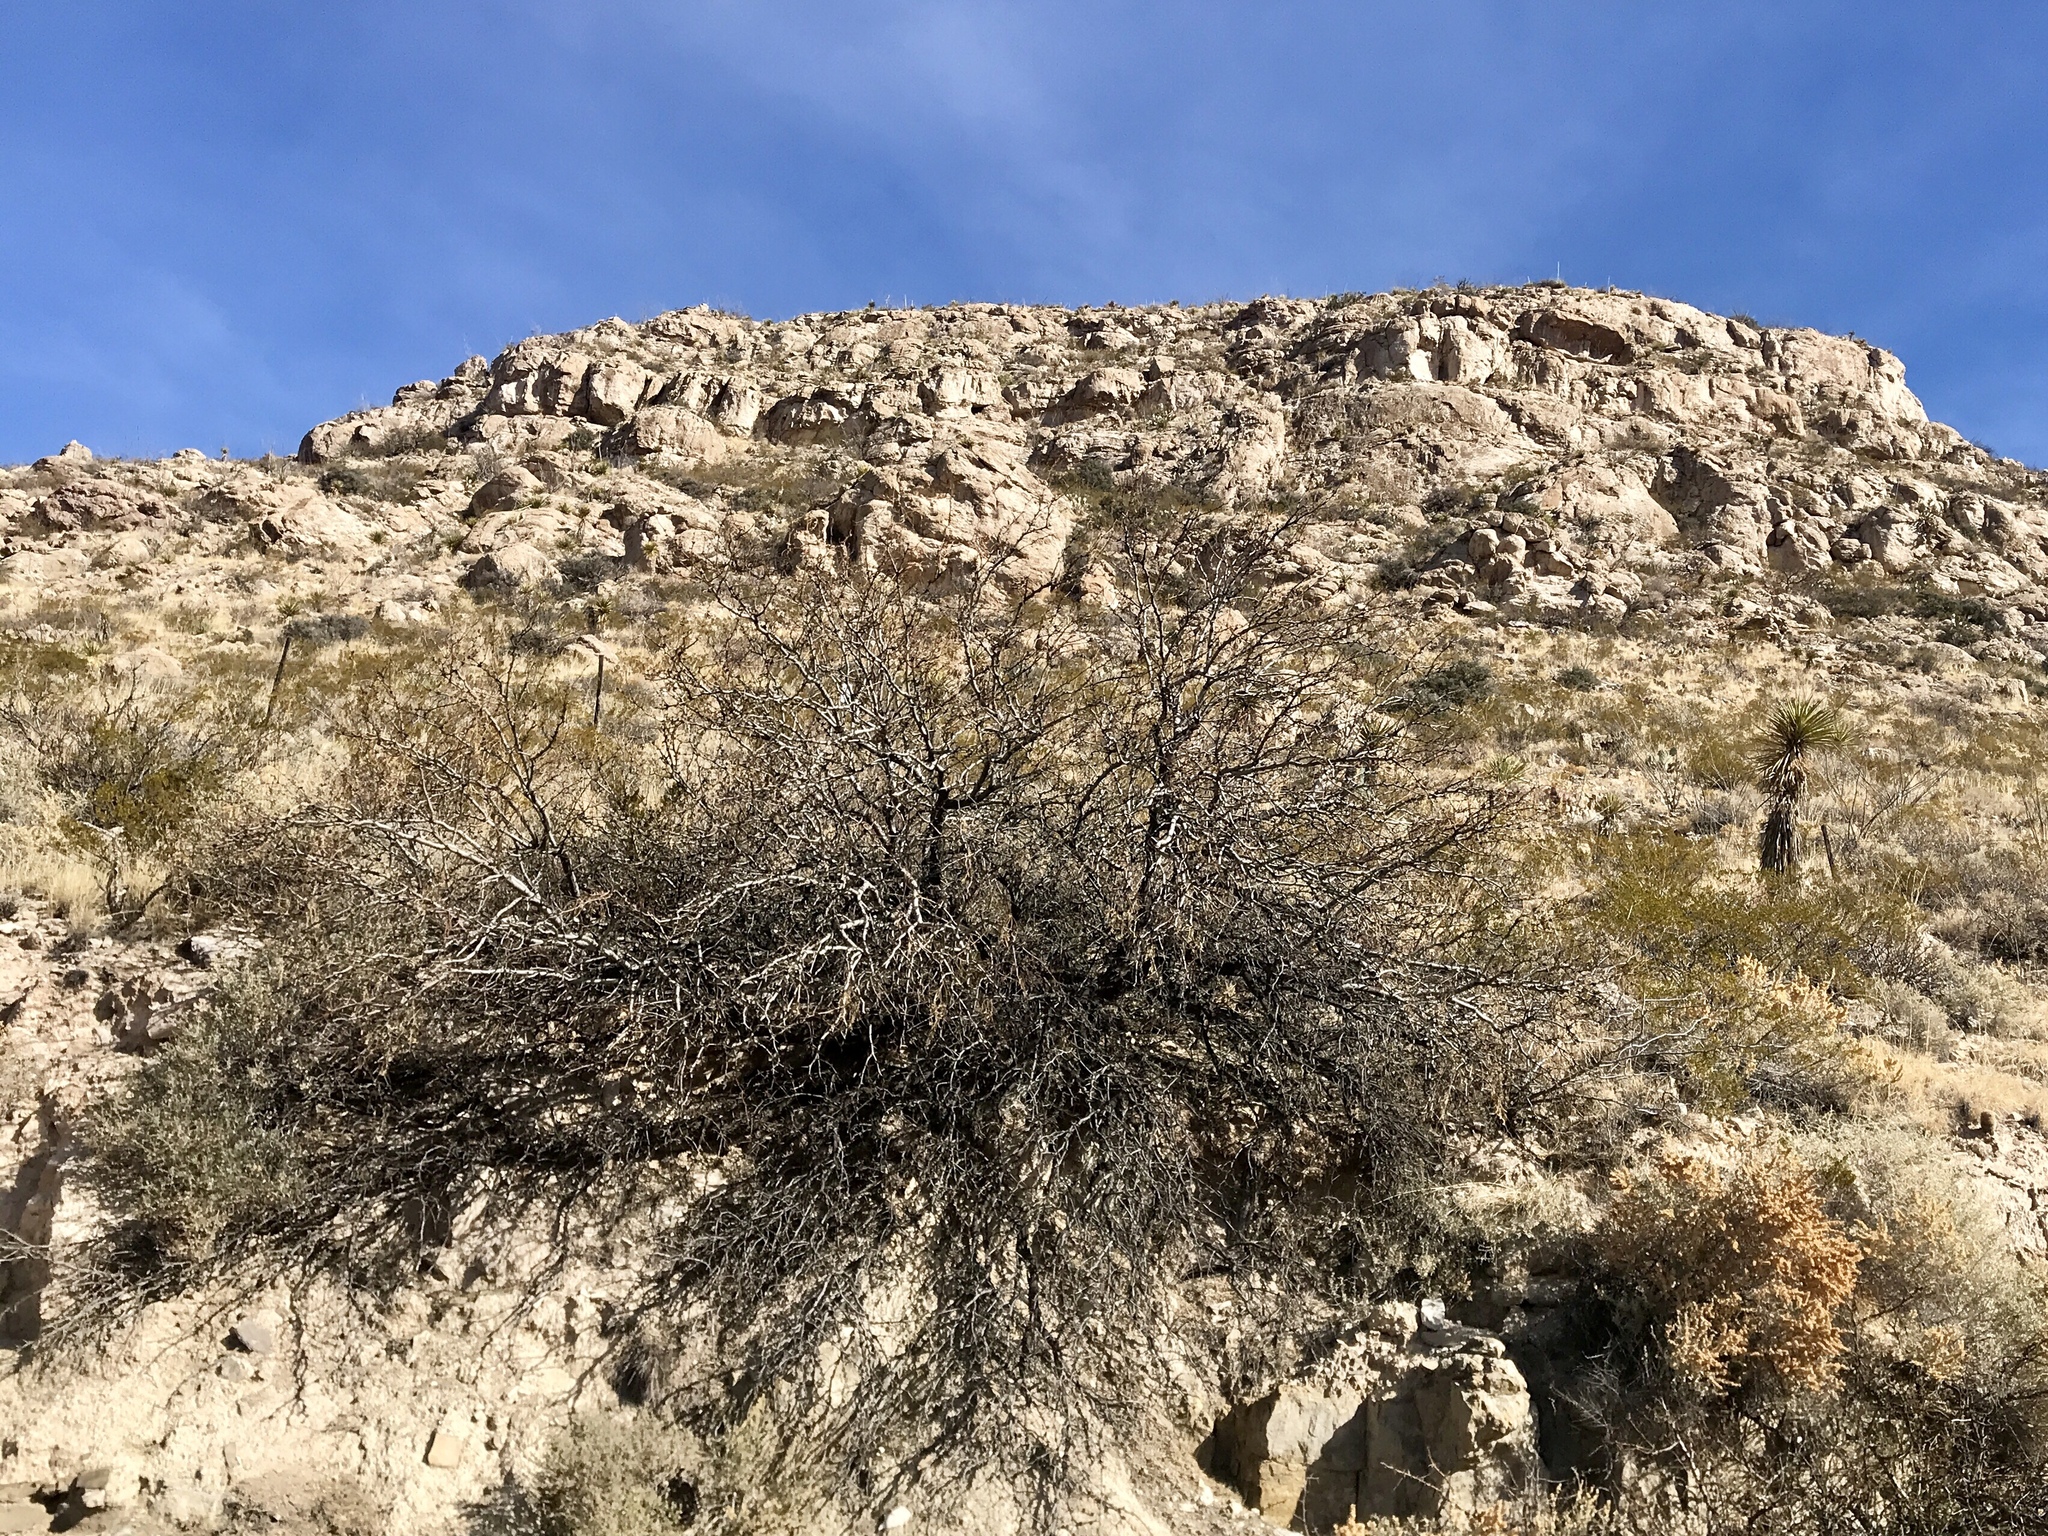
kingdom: Plantae
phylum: Tracheophyta
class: Magnoliopsida
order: Zygophyllales
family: Zygophyllaceae
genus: Larrea
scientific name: Larrea tridentata
